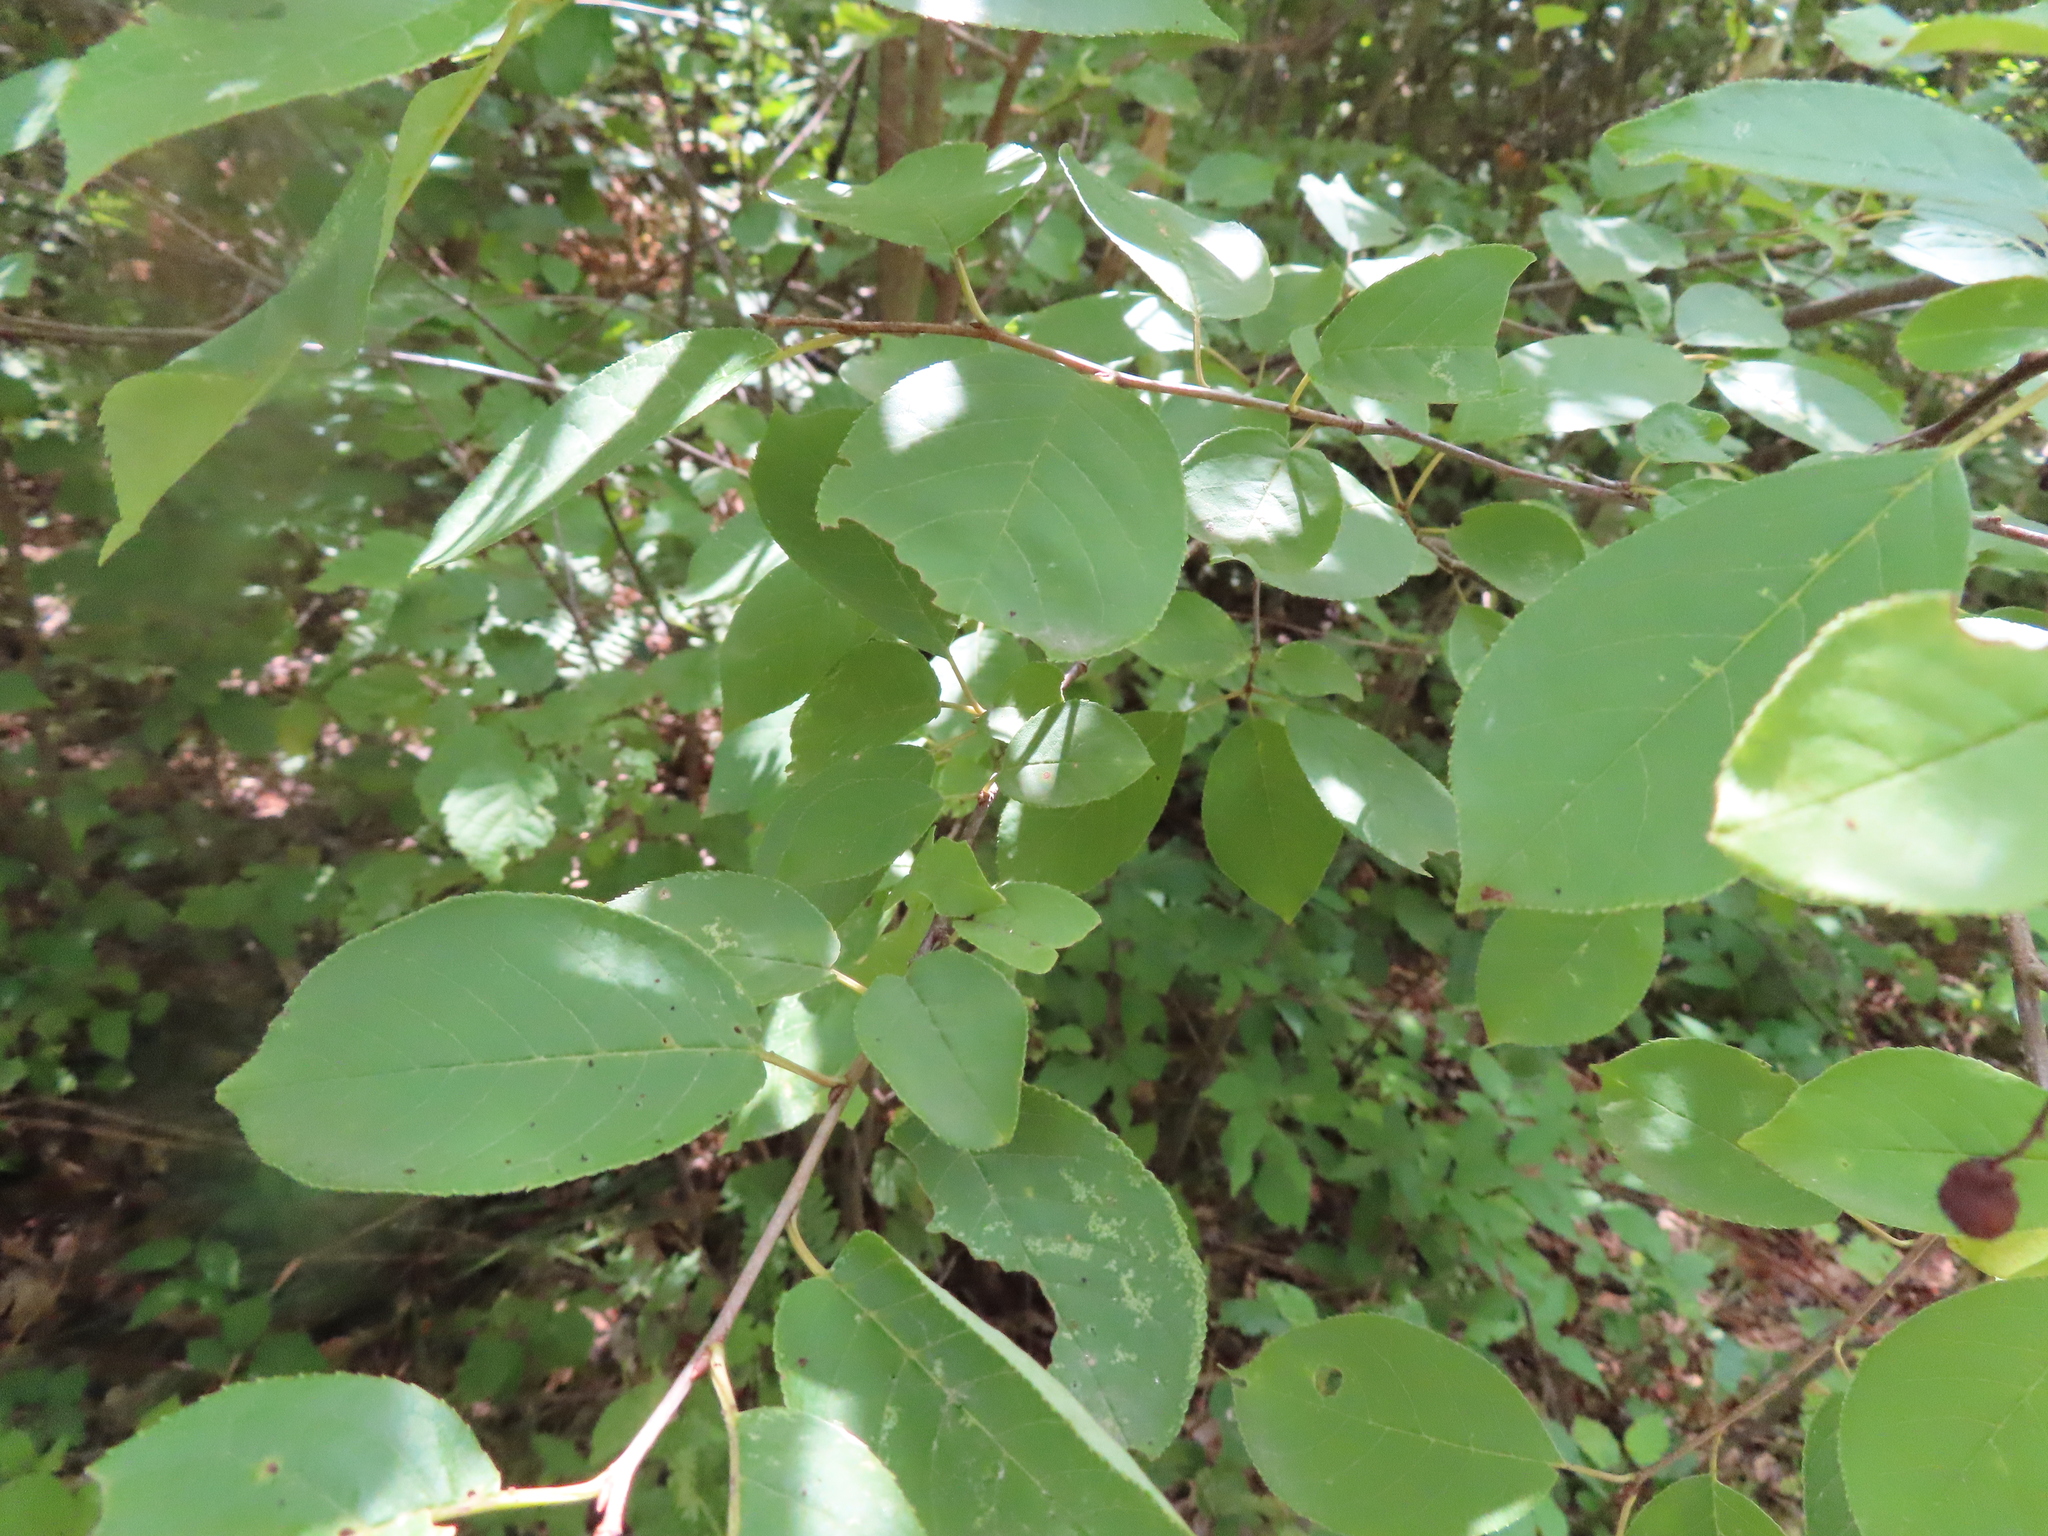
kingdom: Plantae
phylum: Tracheophyta
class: Magnoliopsida
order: Rosales
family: Rosaceae
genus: Prunus
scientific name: Prunus virginiana
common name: Chokecherry
